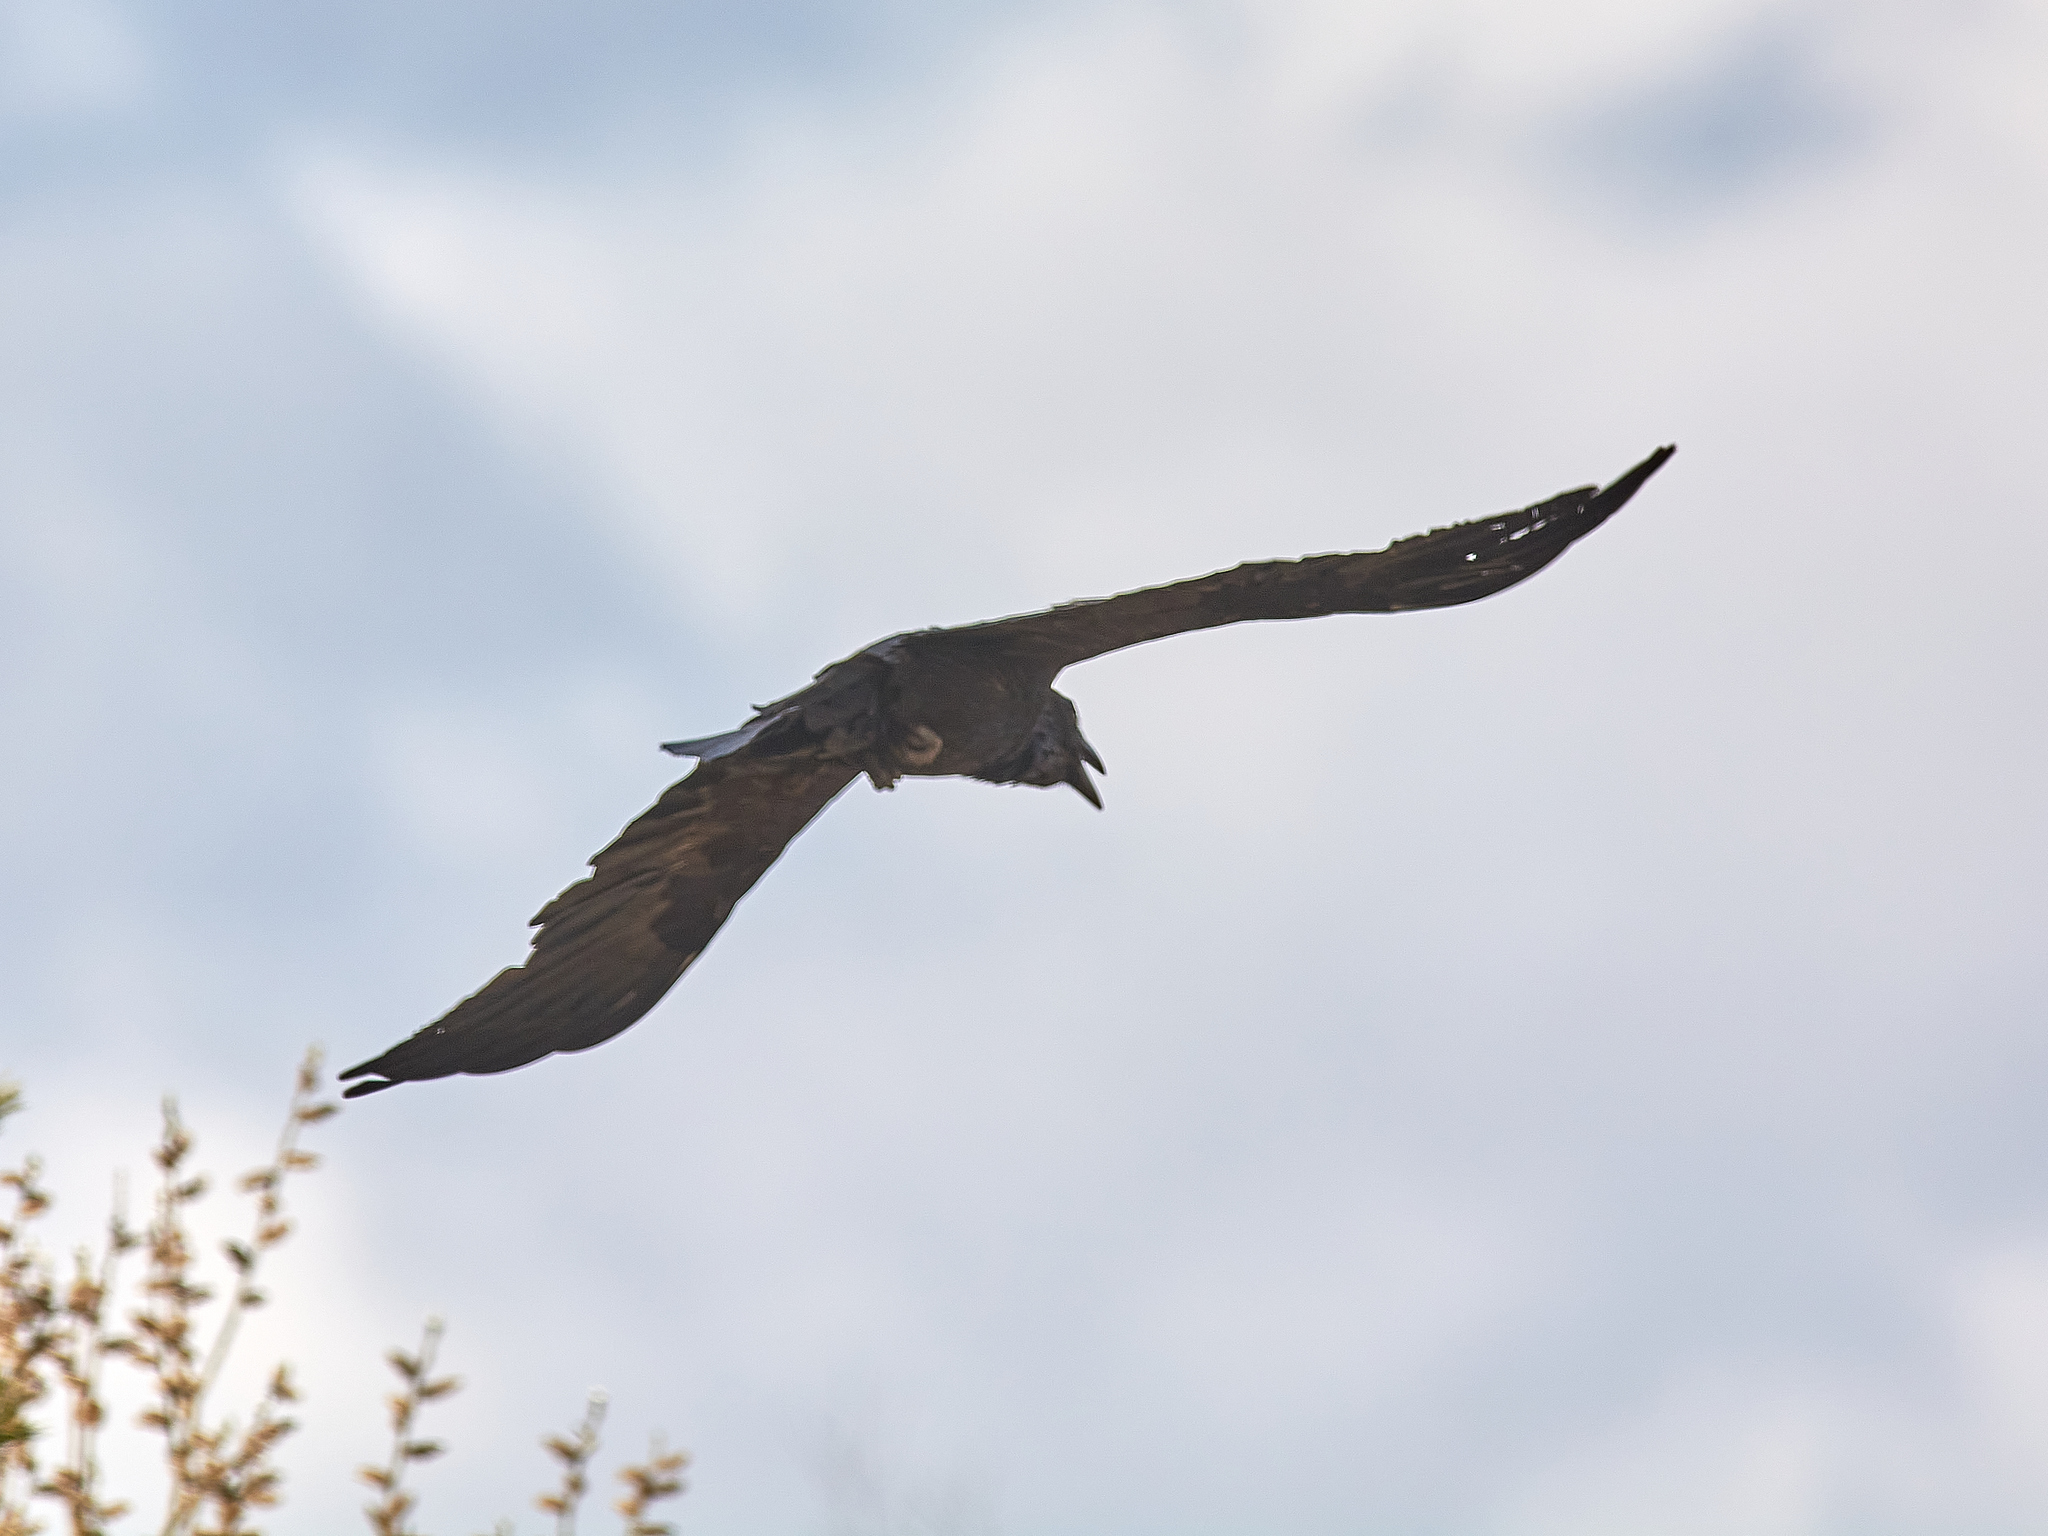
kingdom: Animalia
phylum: Chordata
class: Aves
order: Passeriformes
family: Corvidae
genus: Corvus
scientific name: Corvus corax
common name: Common raven
